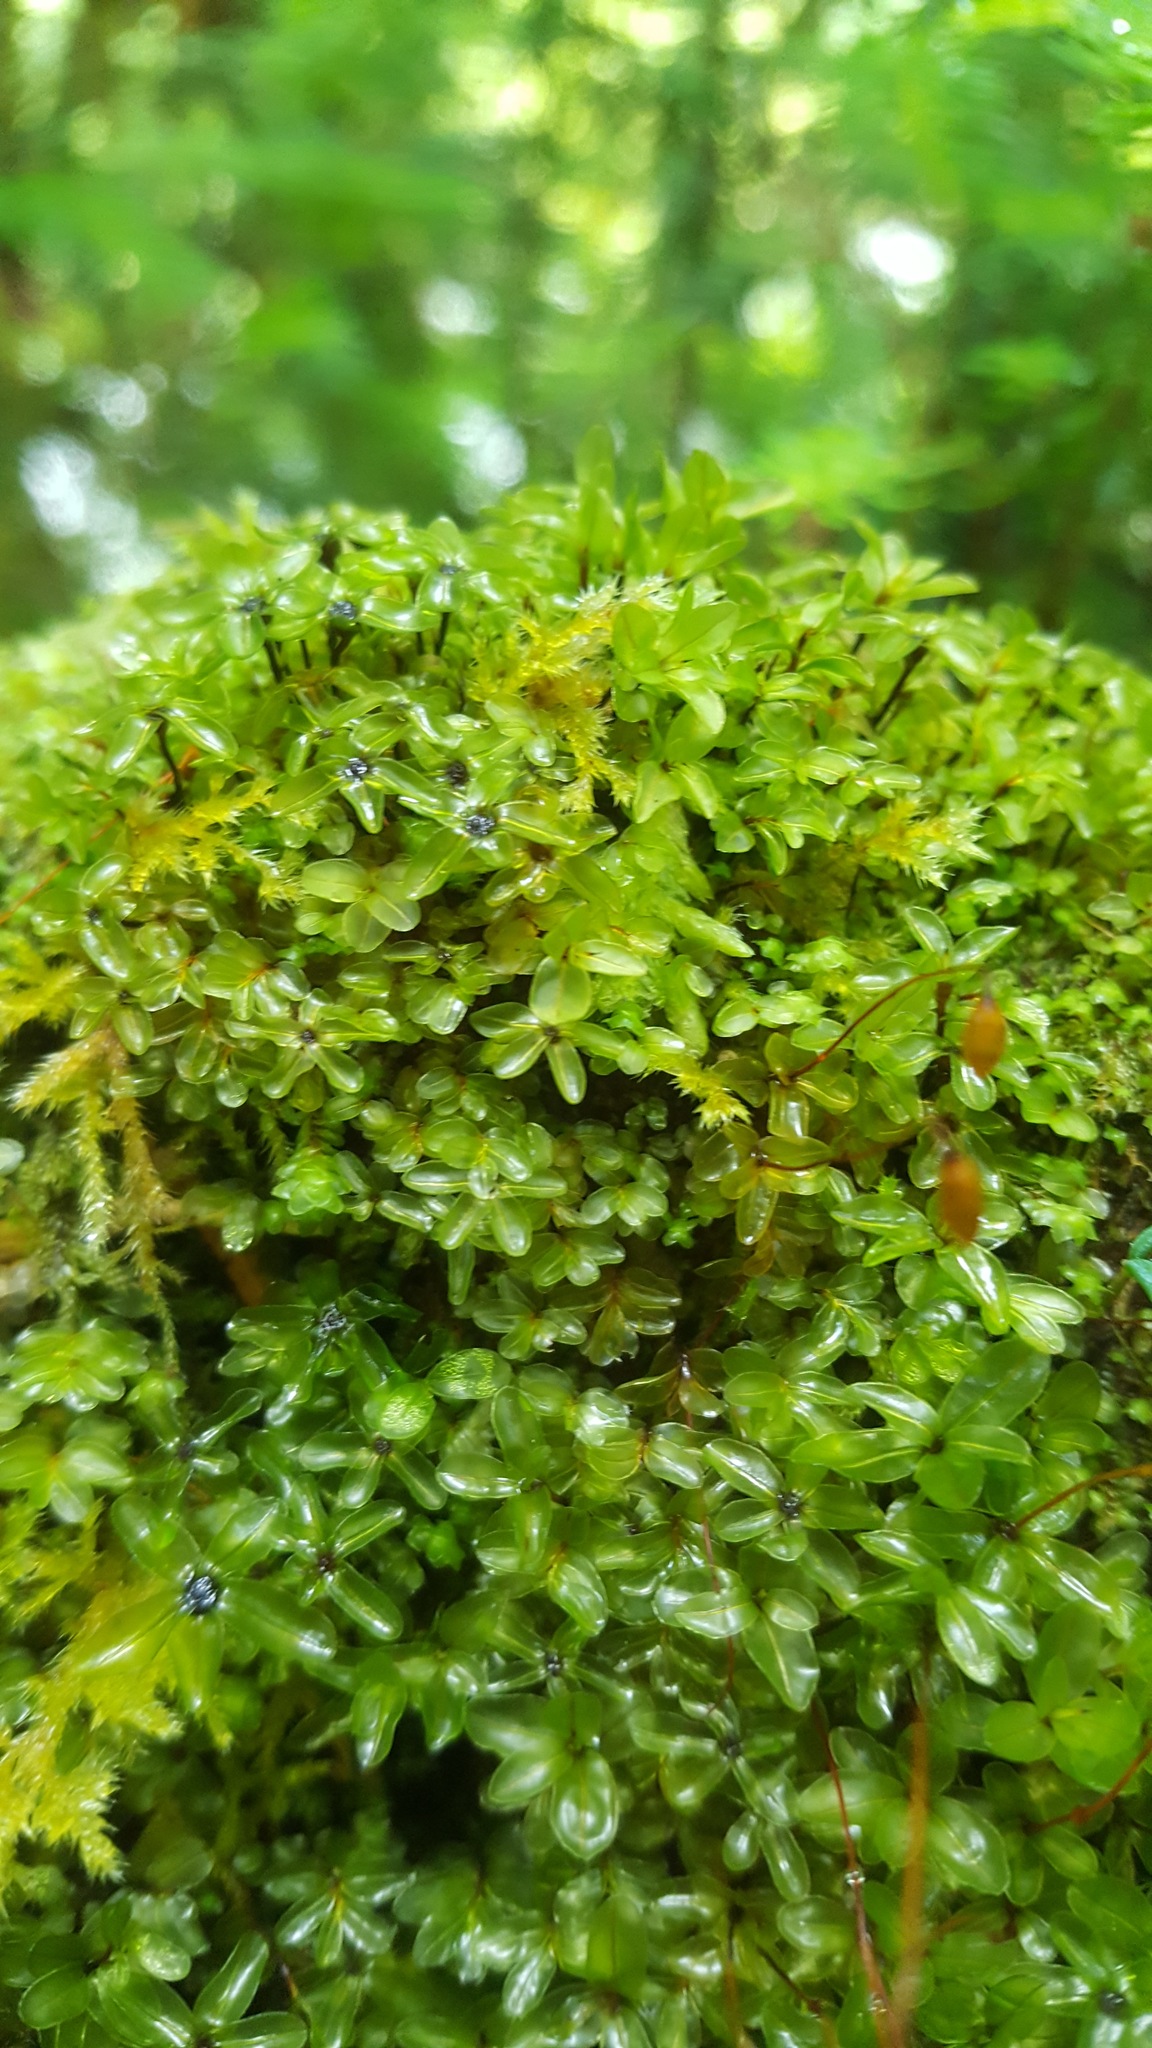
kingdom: Plantae
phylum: Bryophyta
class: Bryopsida
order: Bryales
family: Mniaceae
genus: Rhizomnium
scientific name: Rhizomnium glabrescens
